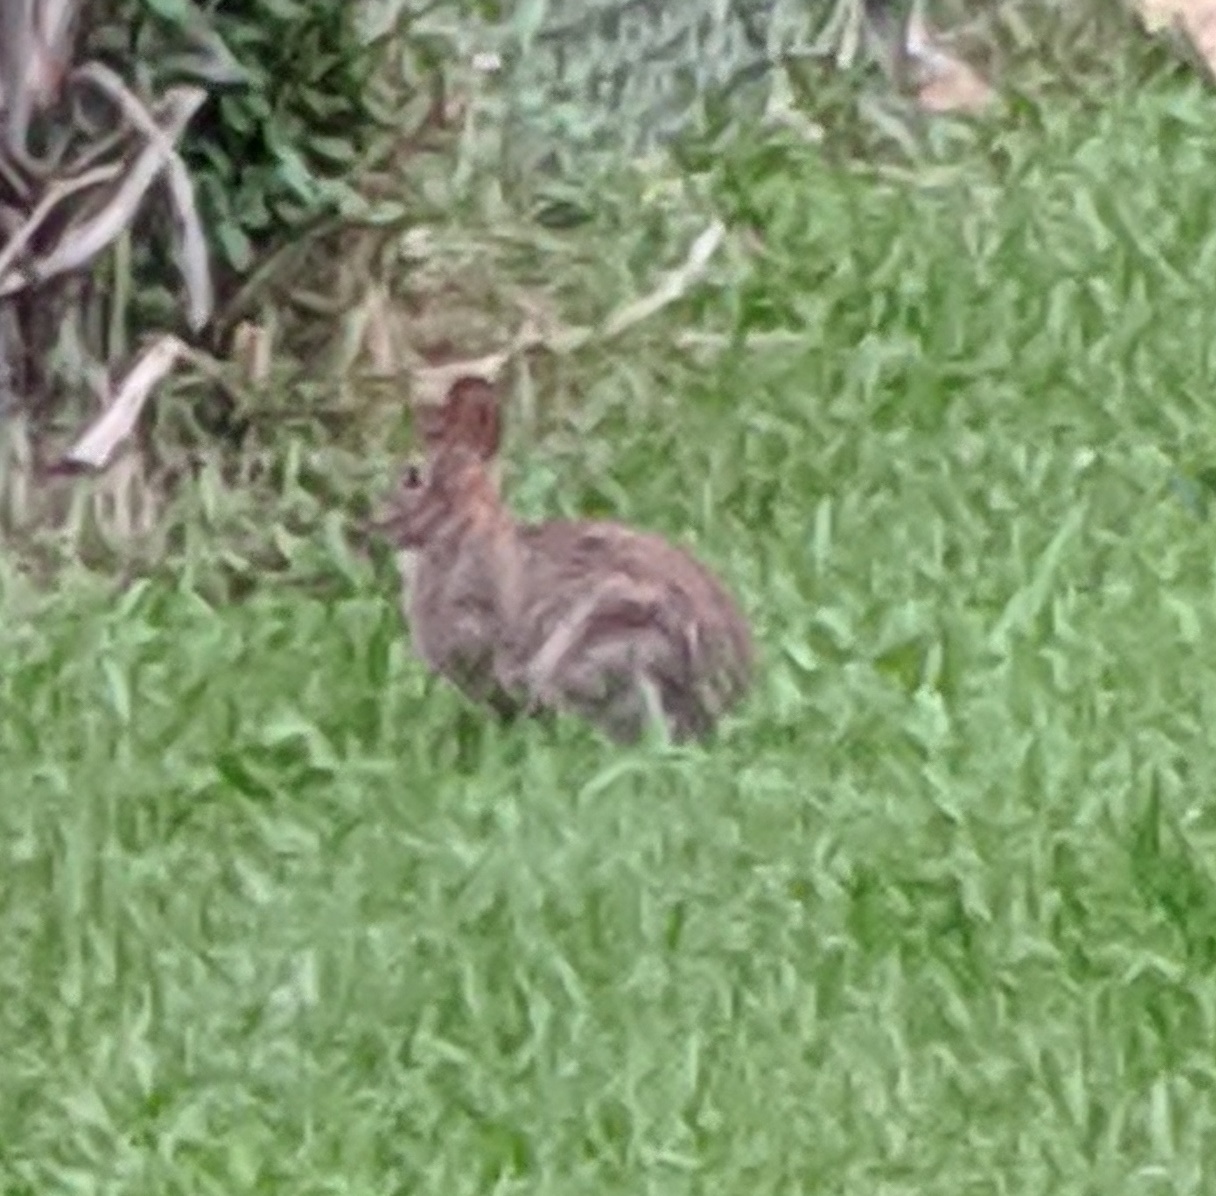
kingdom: Animalia
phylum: Chordata
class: Mammalia
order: Lagomorpha
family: Leporidae
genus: Sylvilagus
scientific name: Sylvilagus floridanus
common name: Eastern cottontail
